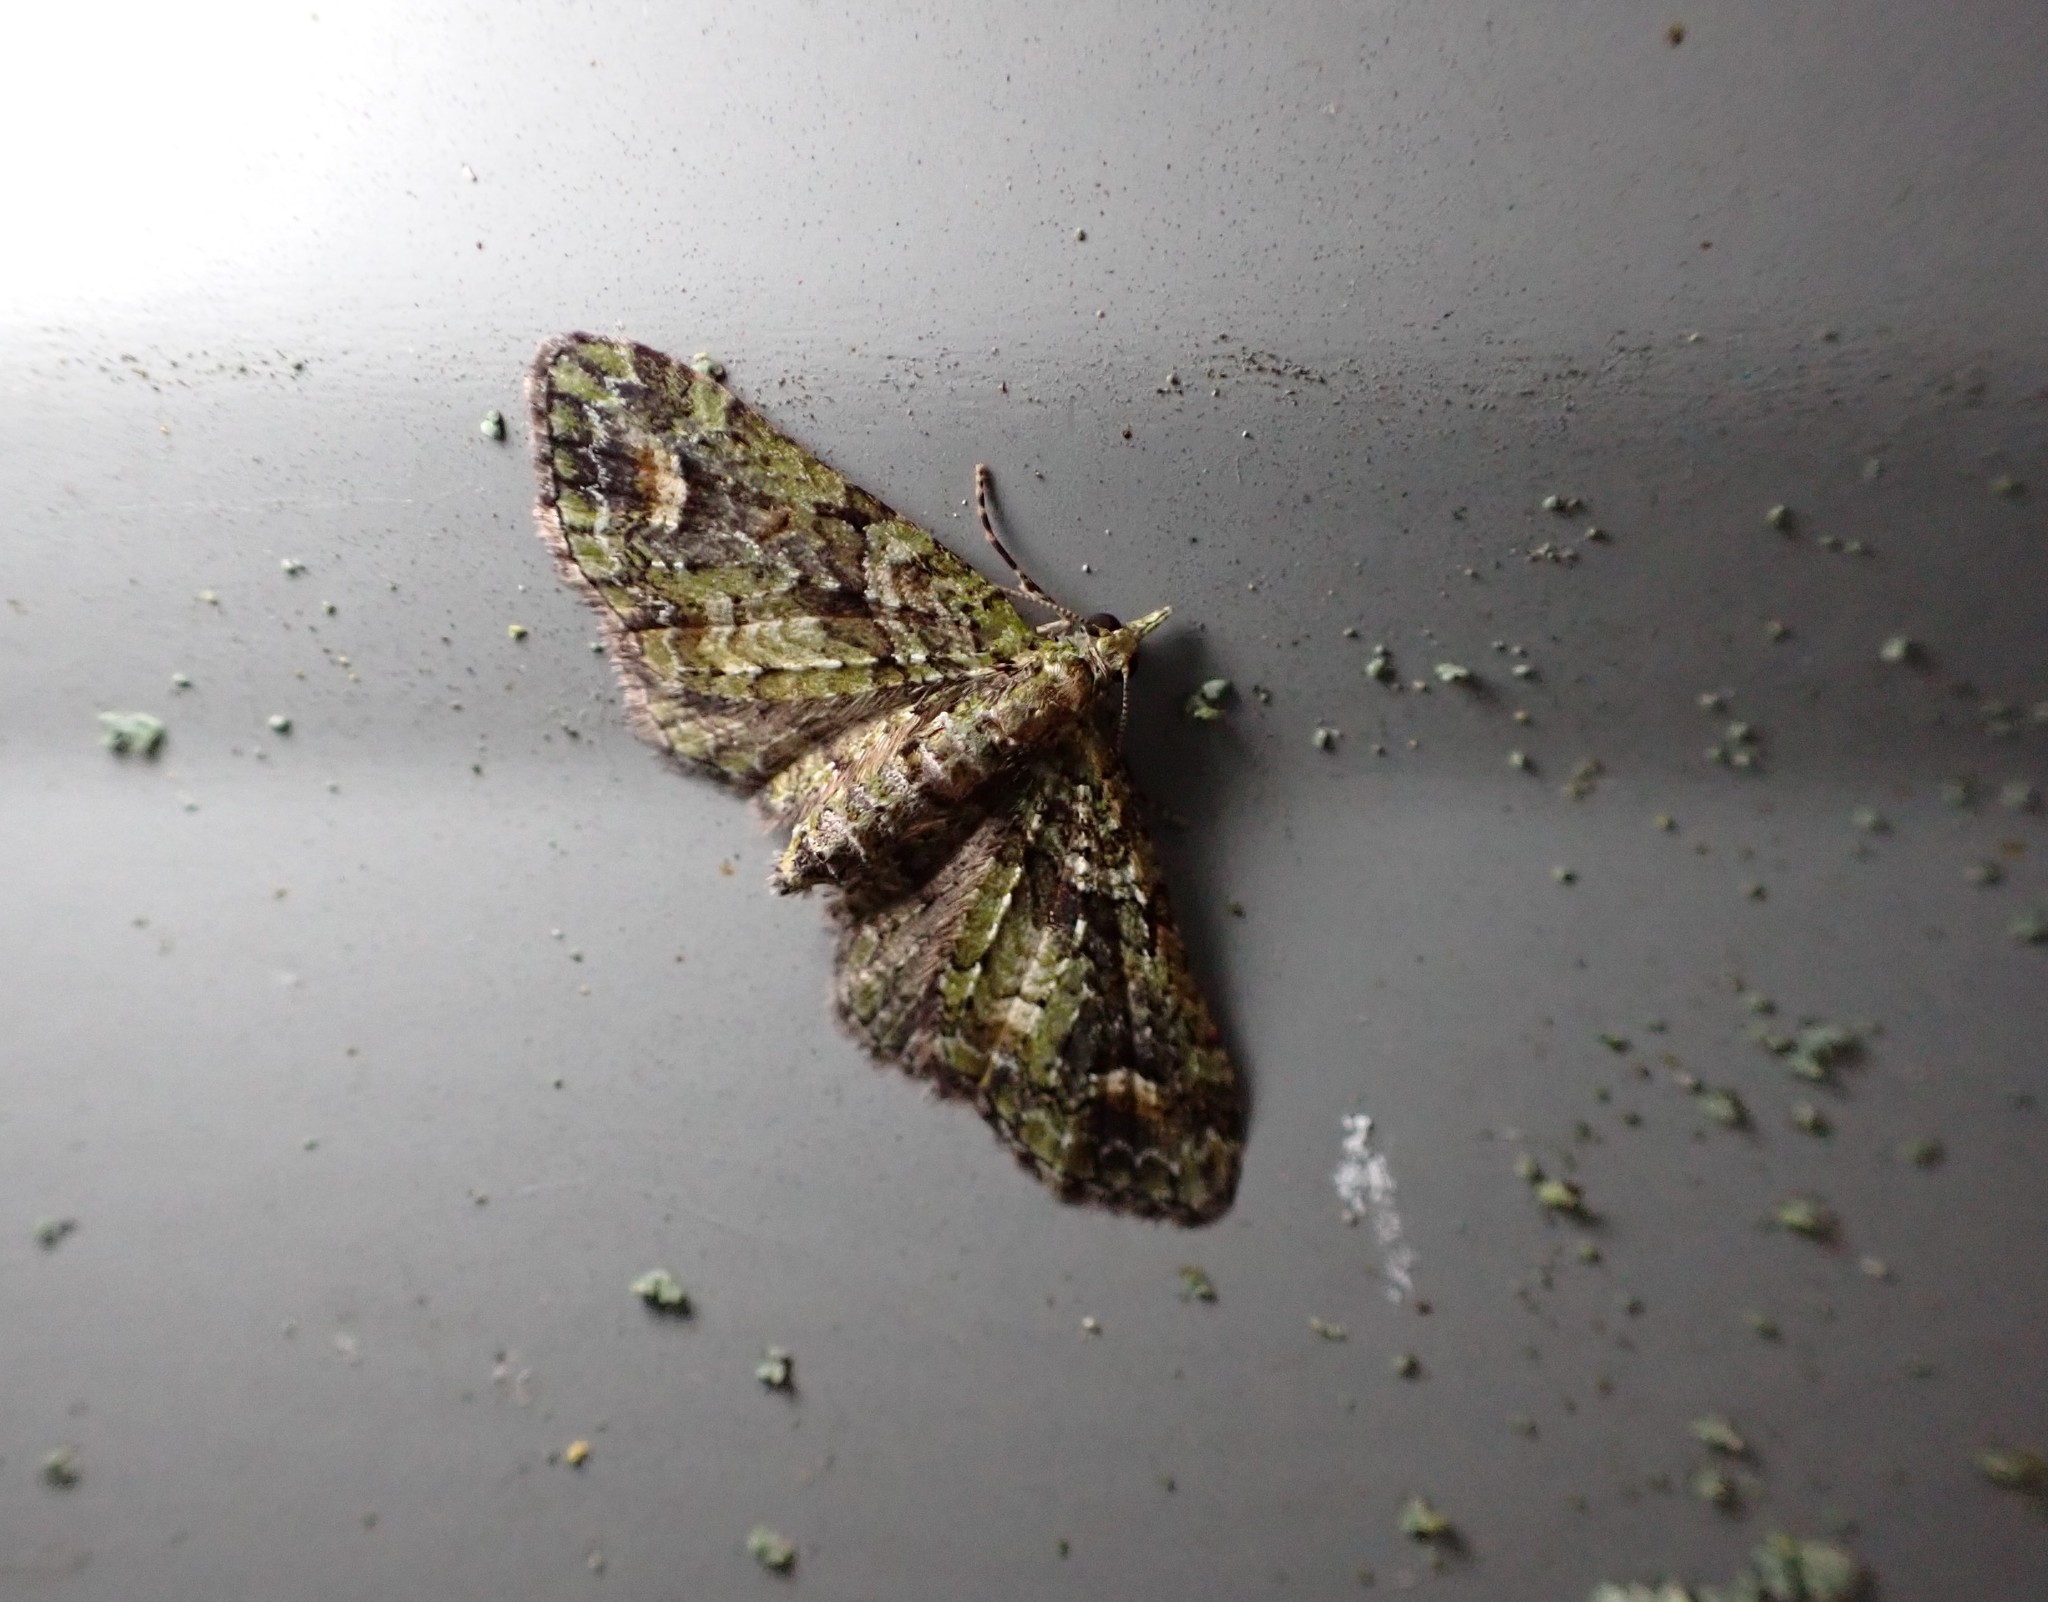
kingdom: Animalia
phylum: Arthropoda
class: Insecta
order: Lepidoptera
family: Geometridae
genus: Idaea
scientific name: Idaea mutanda
